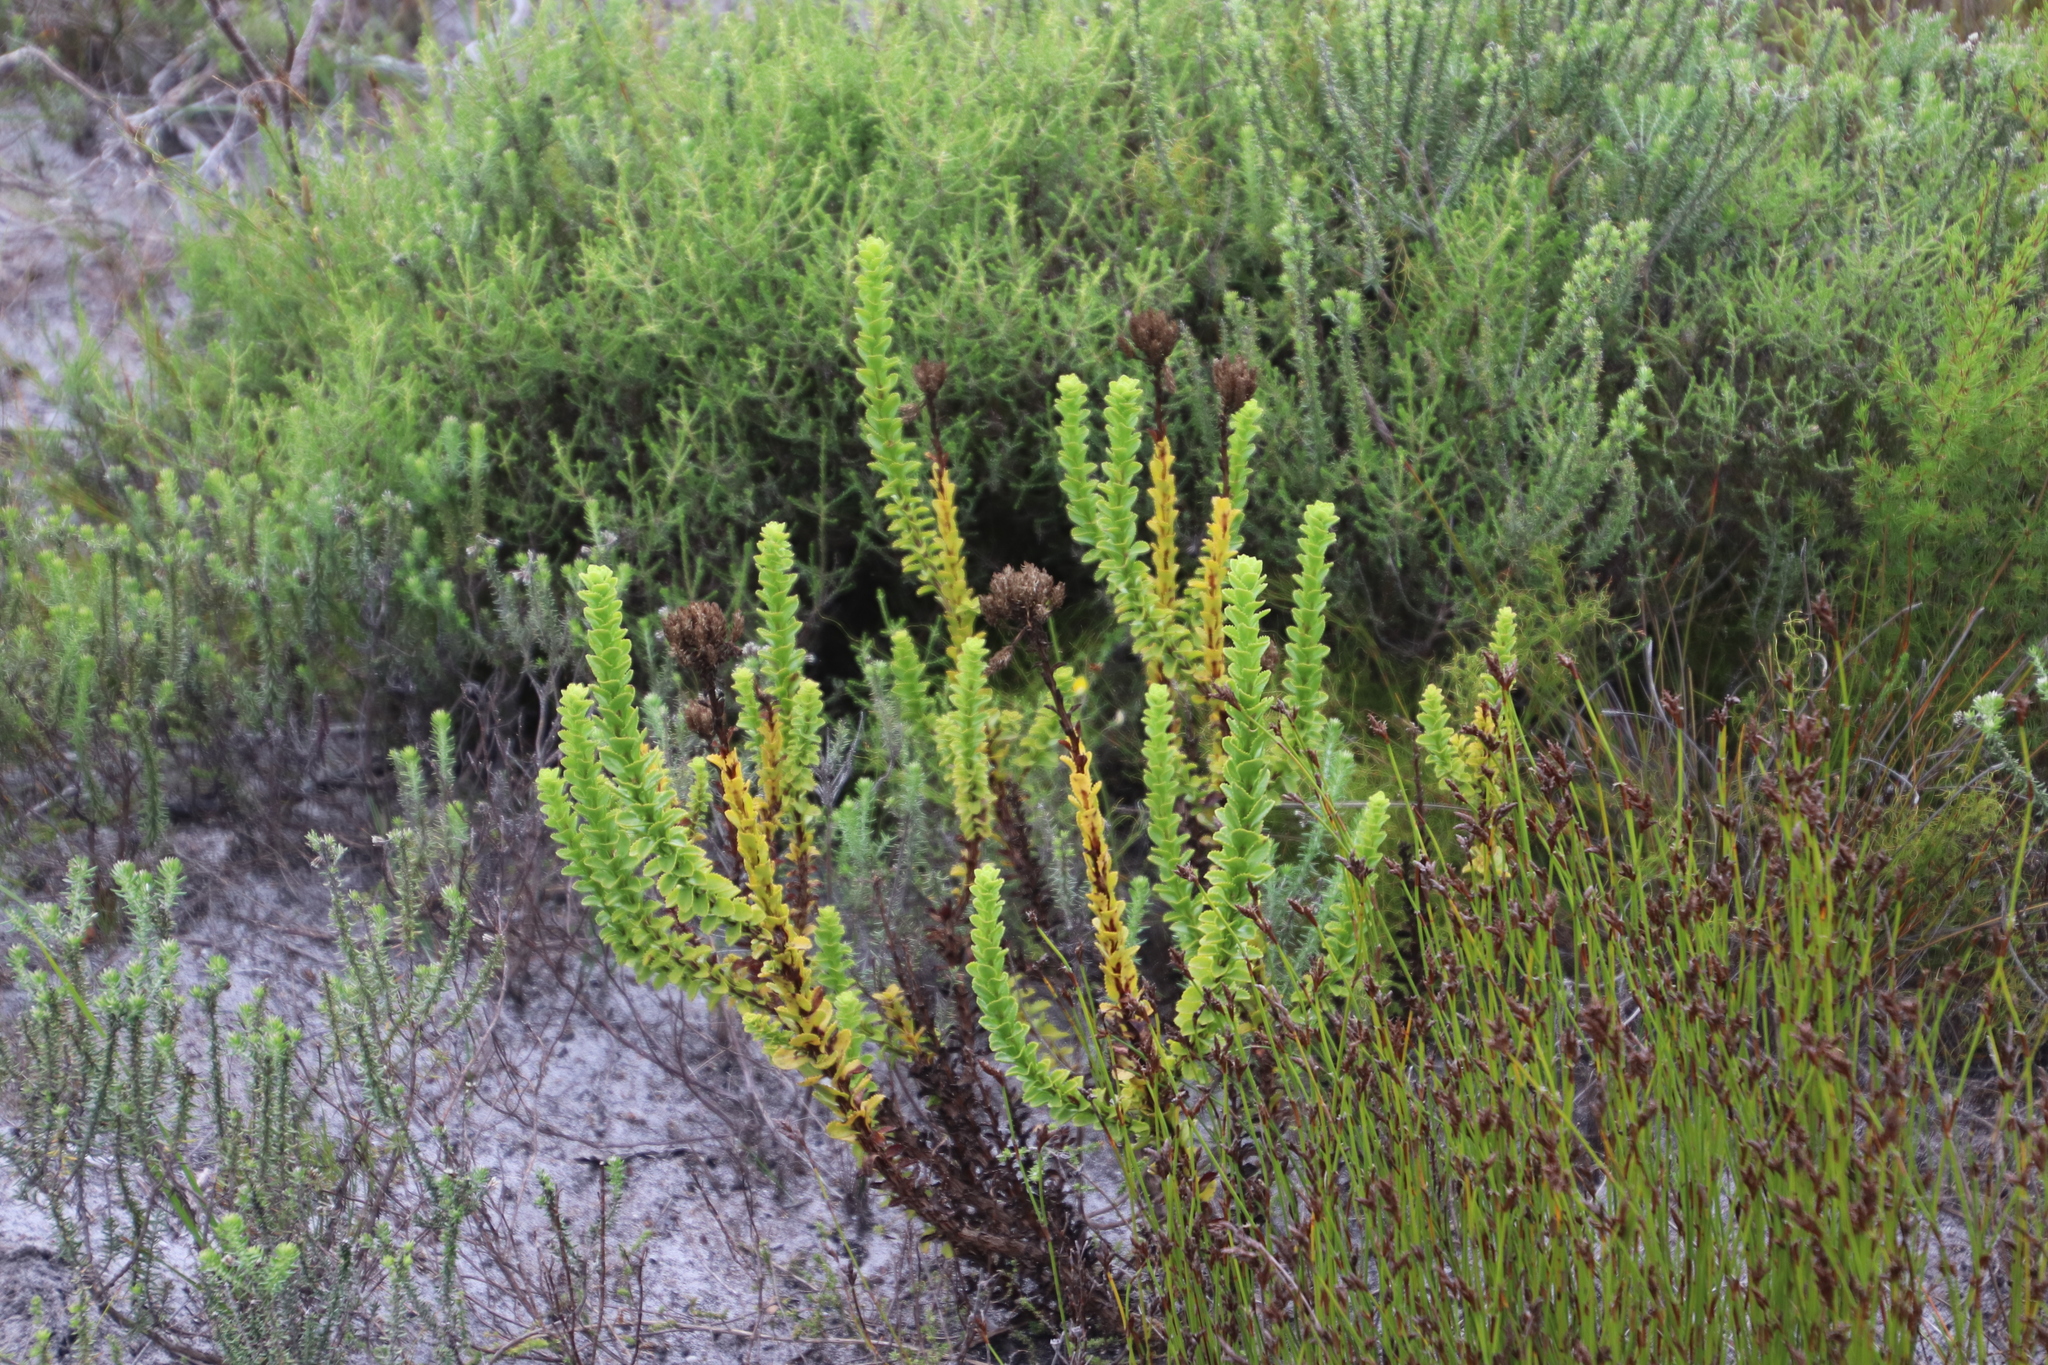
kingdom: Plantae
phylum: Tracheophyta
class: Magnoliopsida
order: Lamiales
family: Scrophulariaceae
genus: Pseudoselago
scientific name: Pseudoselago serrata
